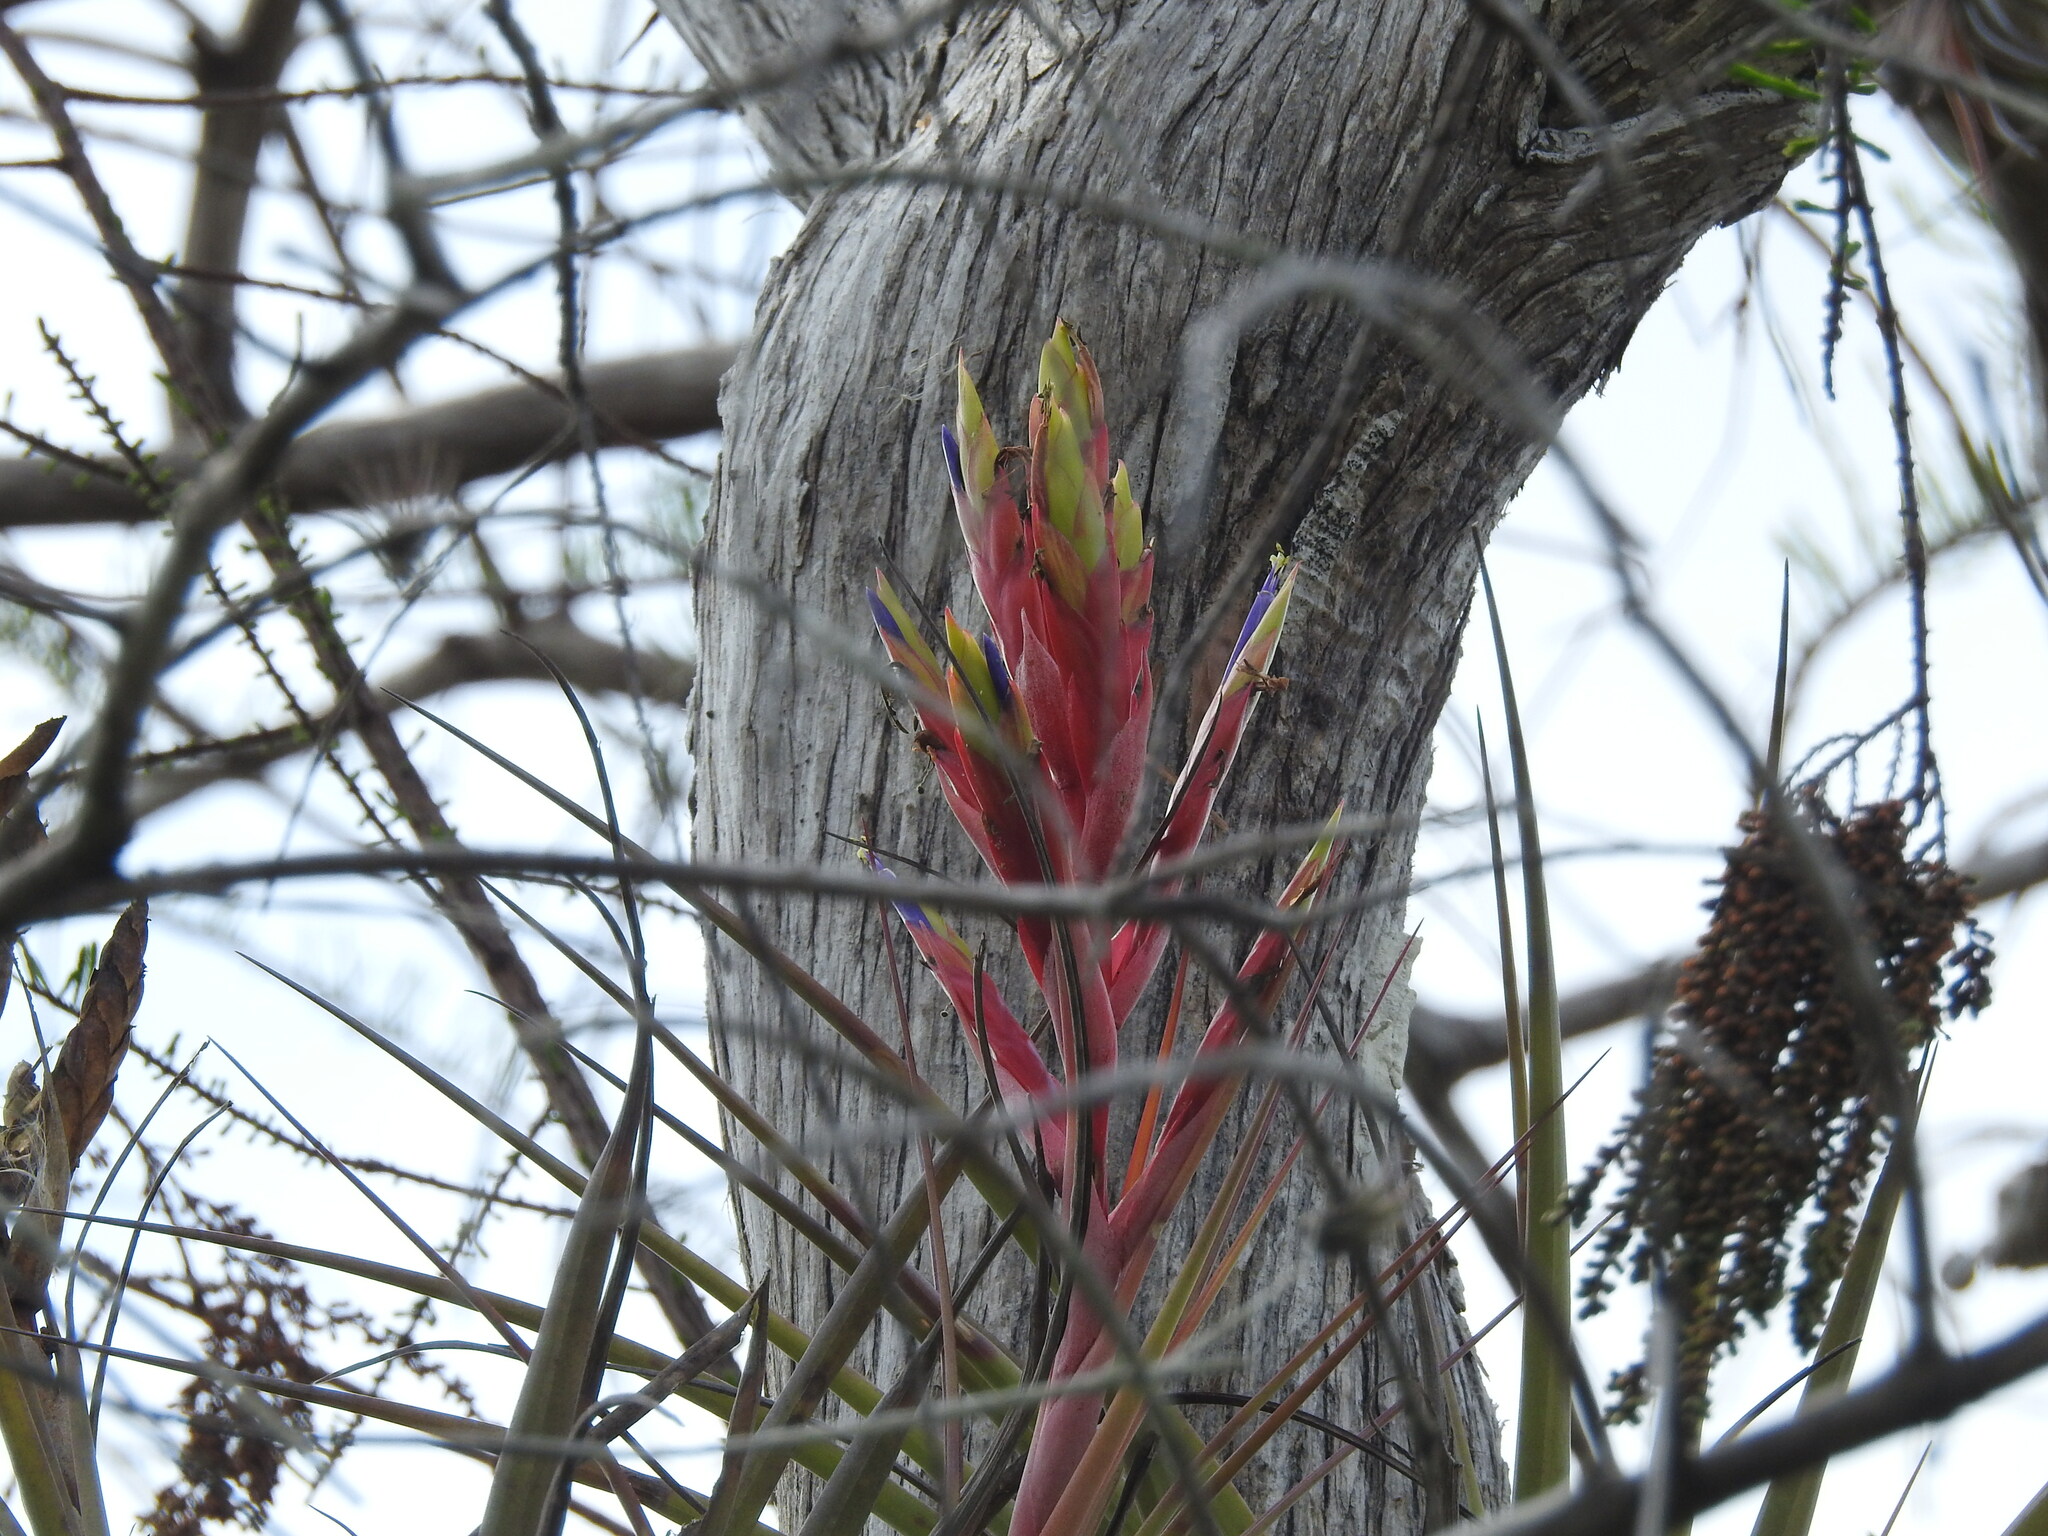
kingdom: Plantae
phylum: Tracheophyta
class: Liliopsida
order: Poales
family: Bromeliaceae
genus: Tillandsia
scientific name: Tillandsia fasciculata
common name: Giant airplant
